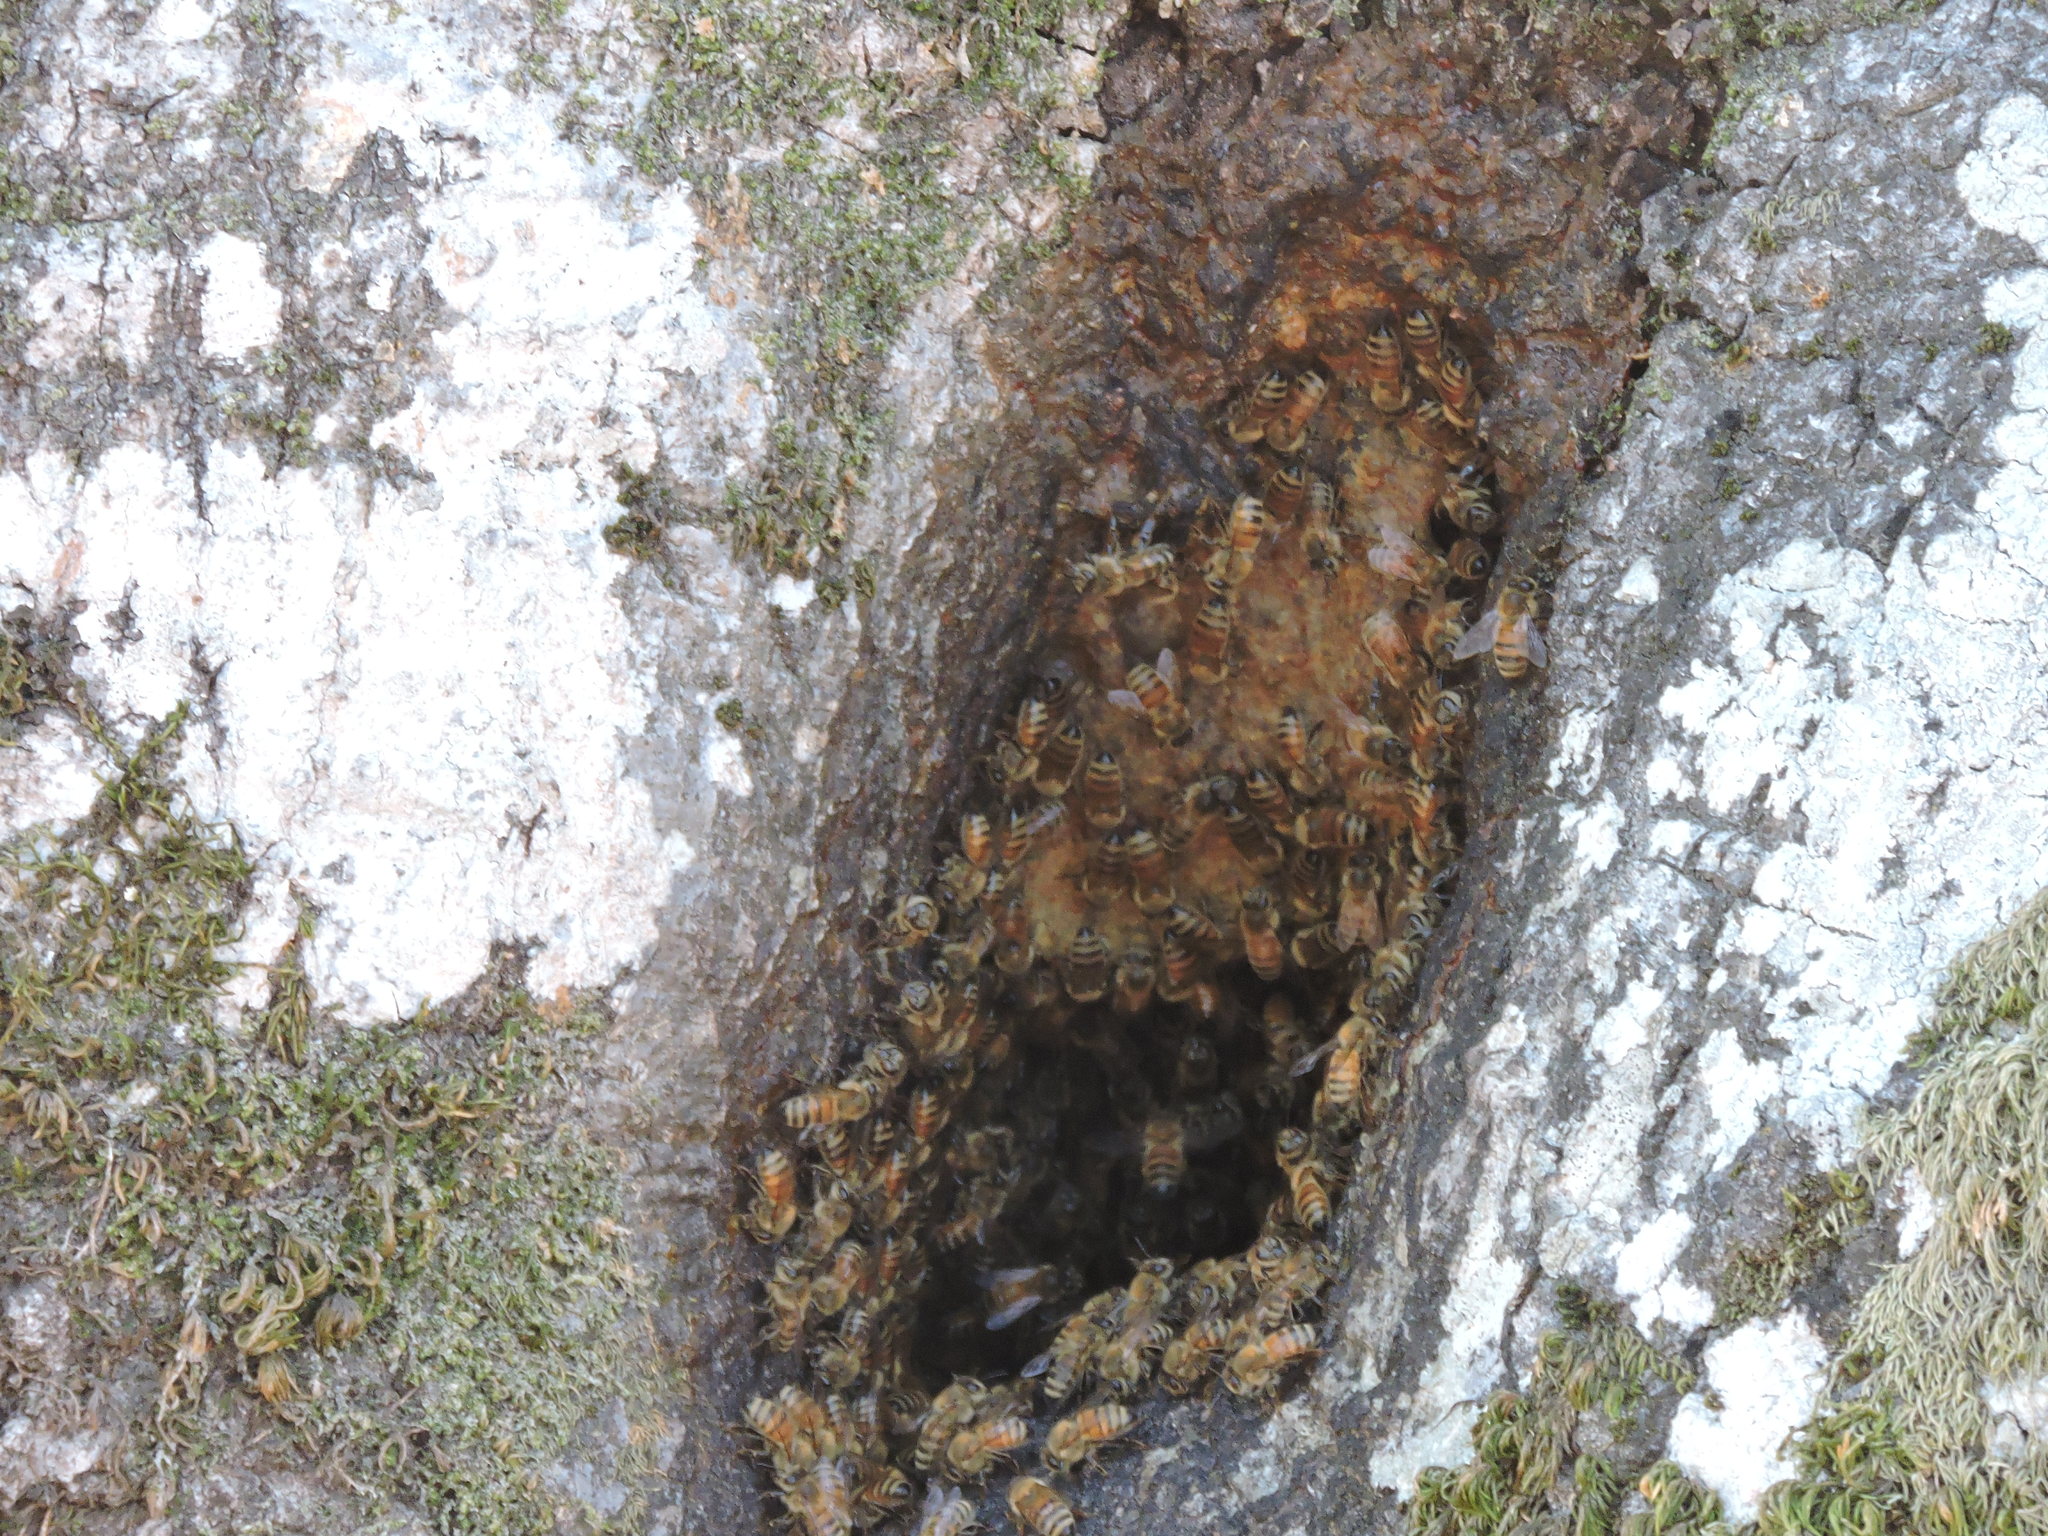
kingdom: Animalia
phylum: Arthropoda
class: Insecta
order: Hymenoptera
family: Apidae
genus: Apis
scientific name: Apis mellifera
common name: Honey bee
